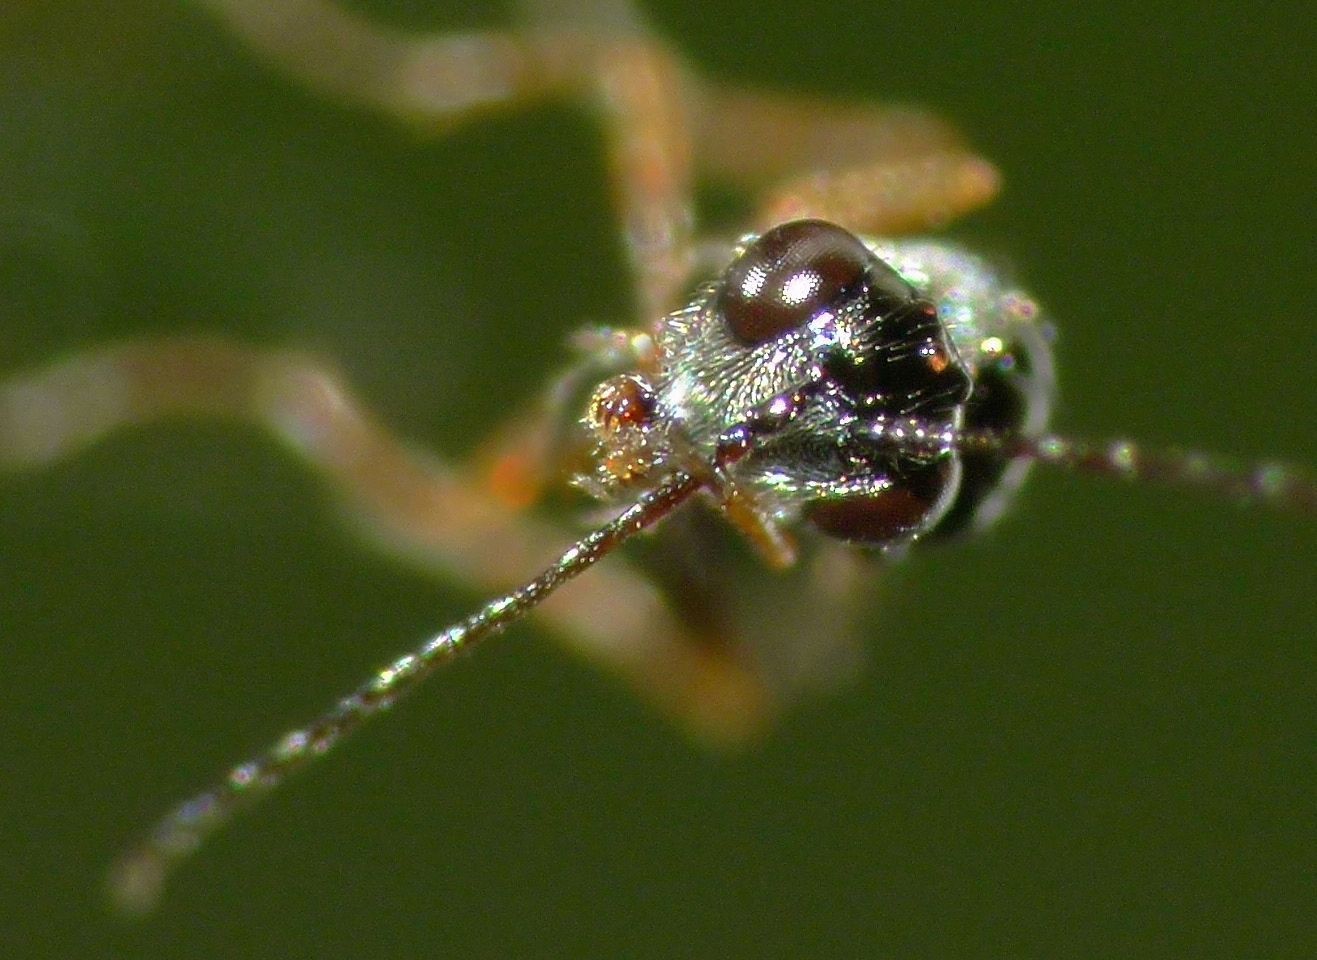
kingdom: Animalia
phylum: Arthropoda
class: Insecta
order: Hymenoptera
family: Figitidae
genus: Anacharis
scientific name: Anacharis zealandica
